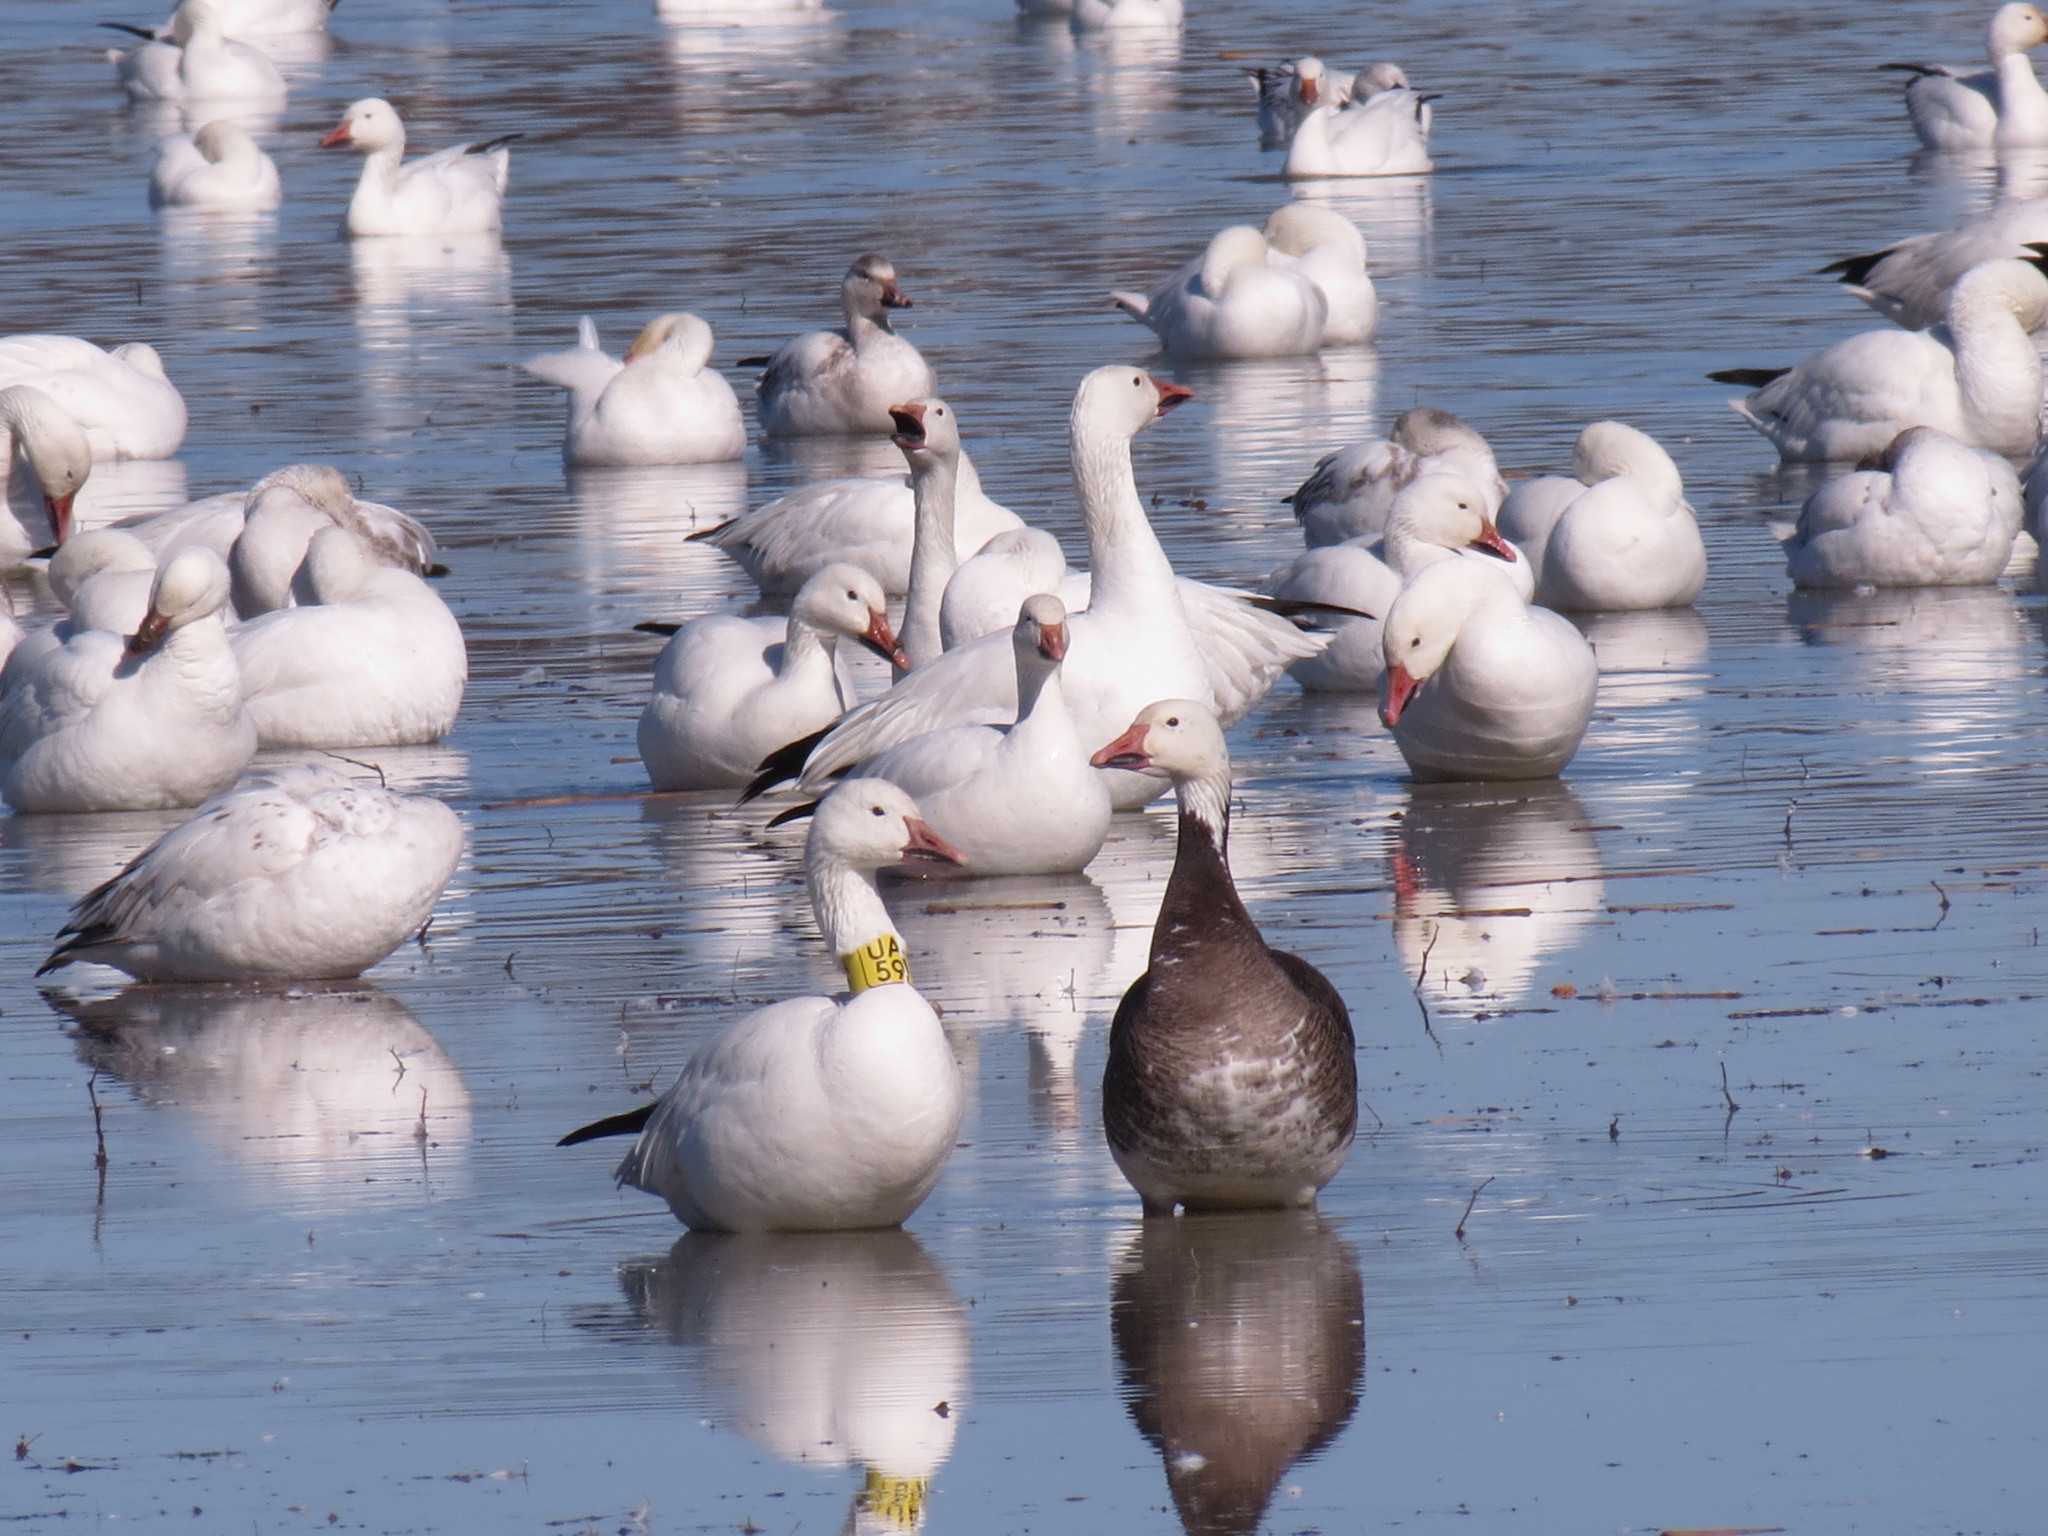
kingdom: Animalia
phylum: Chordata
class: Aves
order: Anseriformes
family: Anatidae
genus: Anser
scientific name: Anser caerulescens
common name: Snow goose
